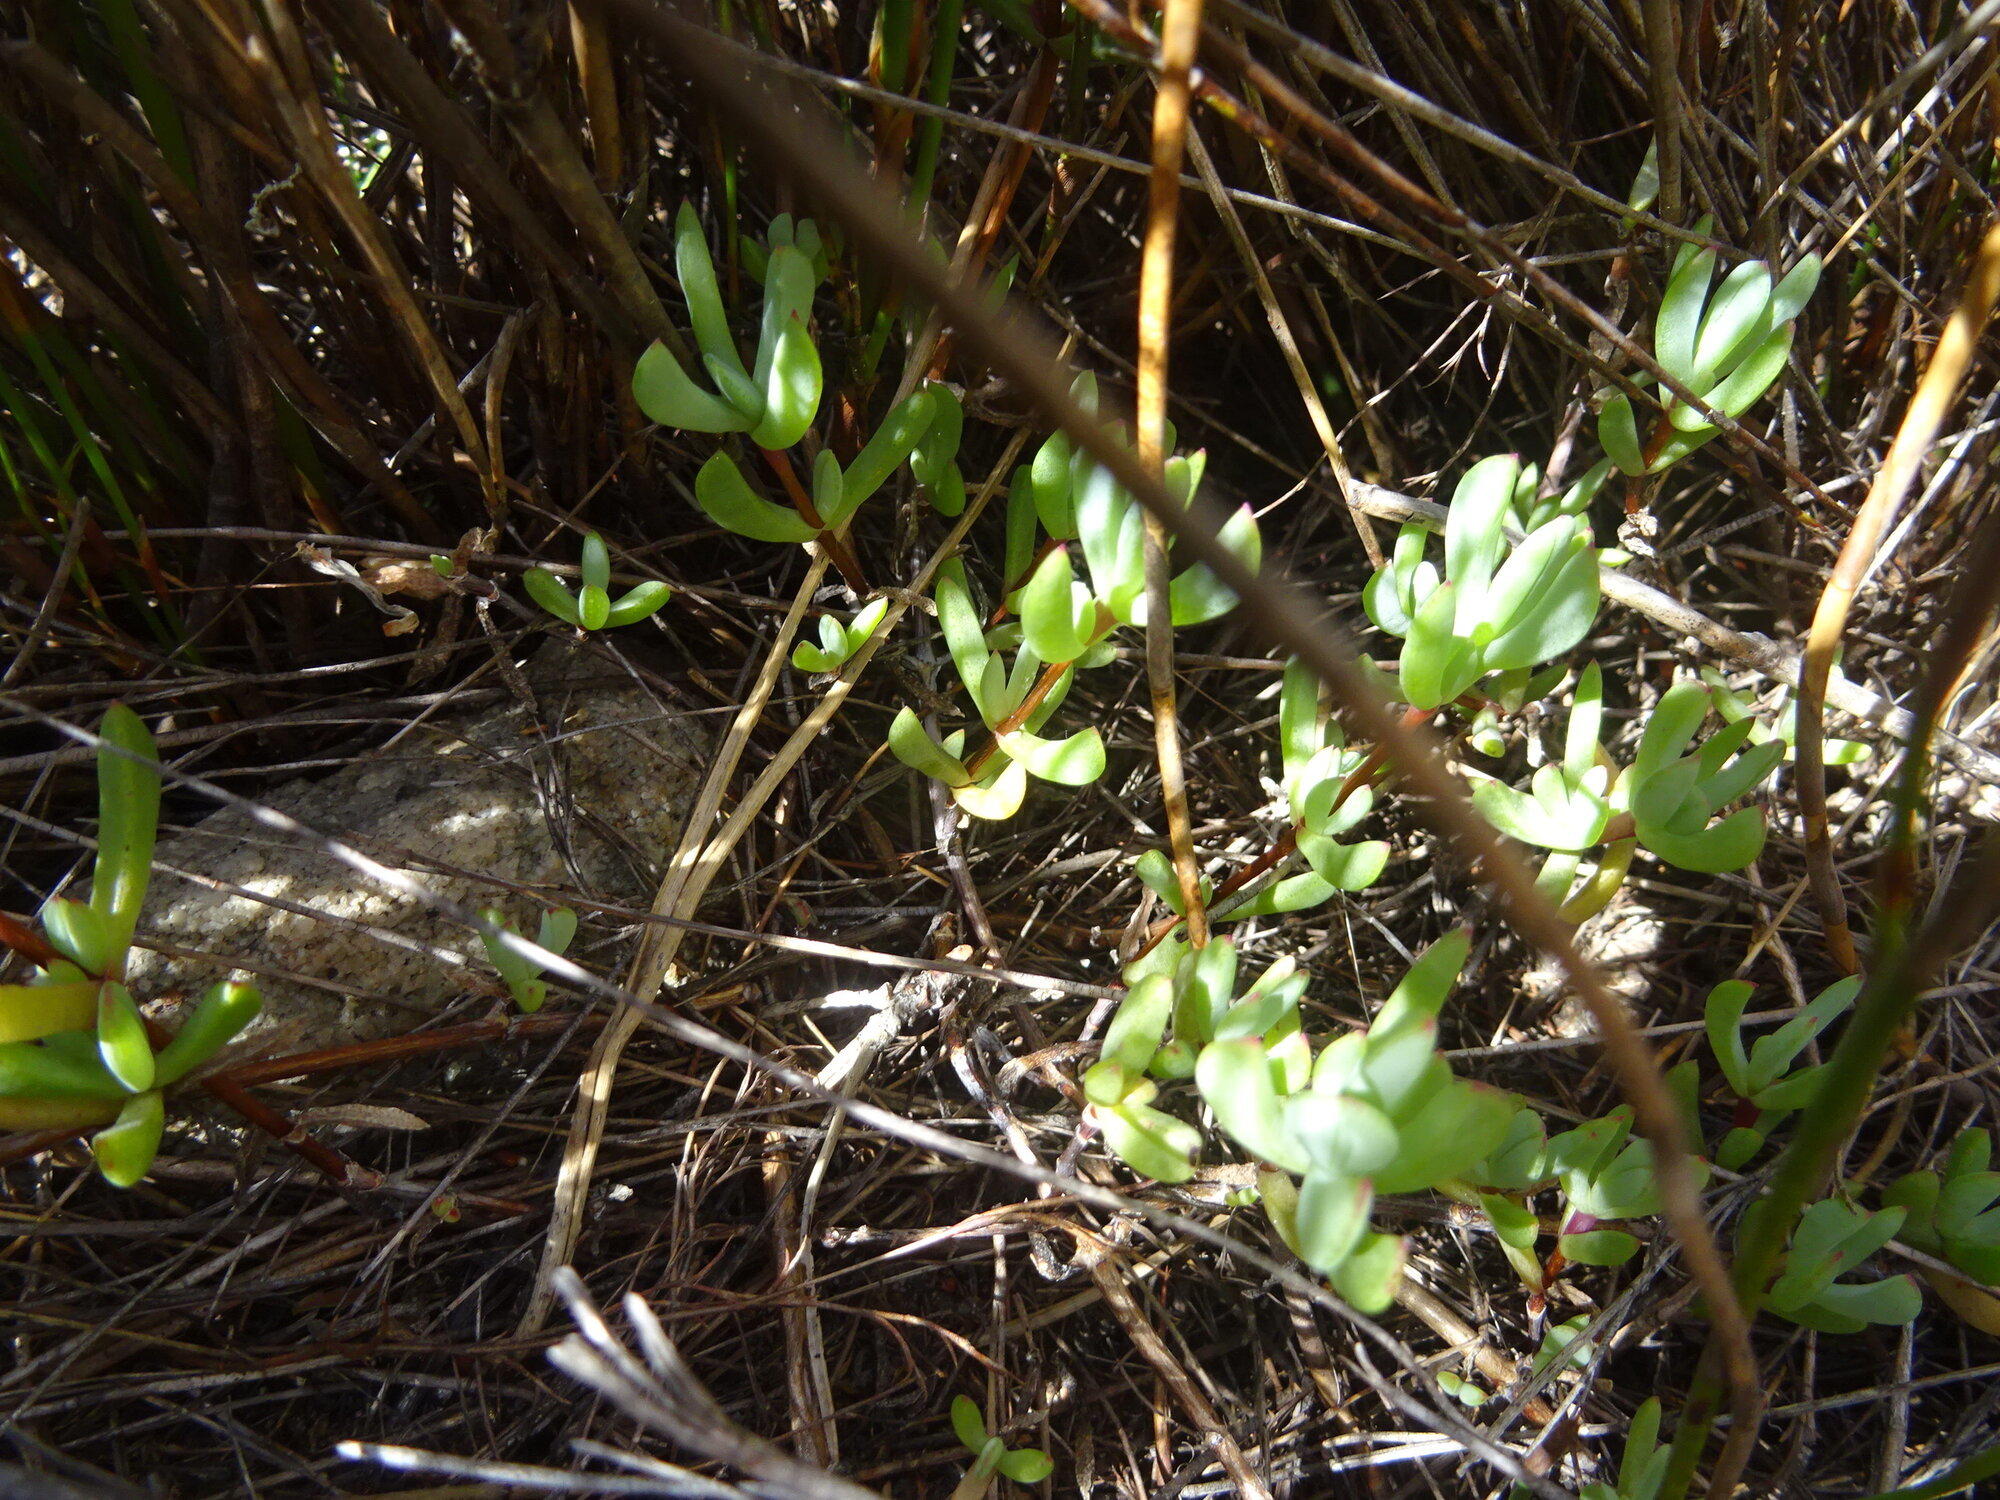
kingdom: Plantae
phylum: Tracheophyta
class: Magnoliopsida
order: Caryophyllales
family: Aizoaceae
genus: Oscularia
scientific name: Oscularia falciformis
